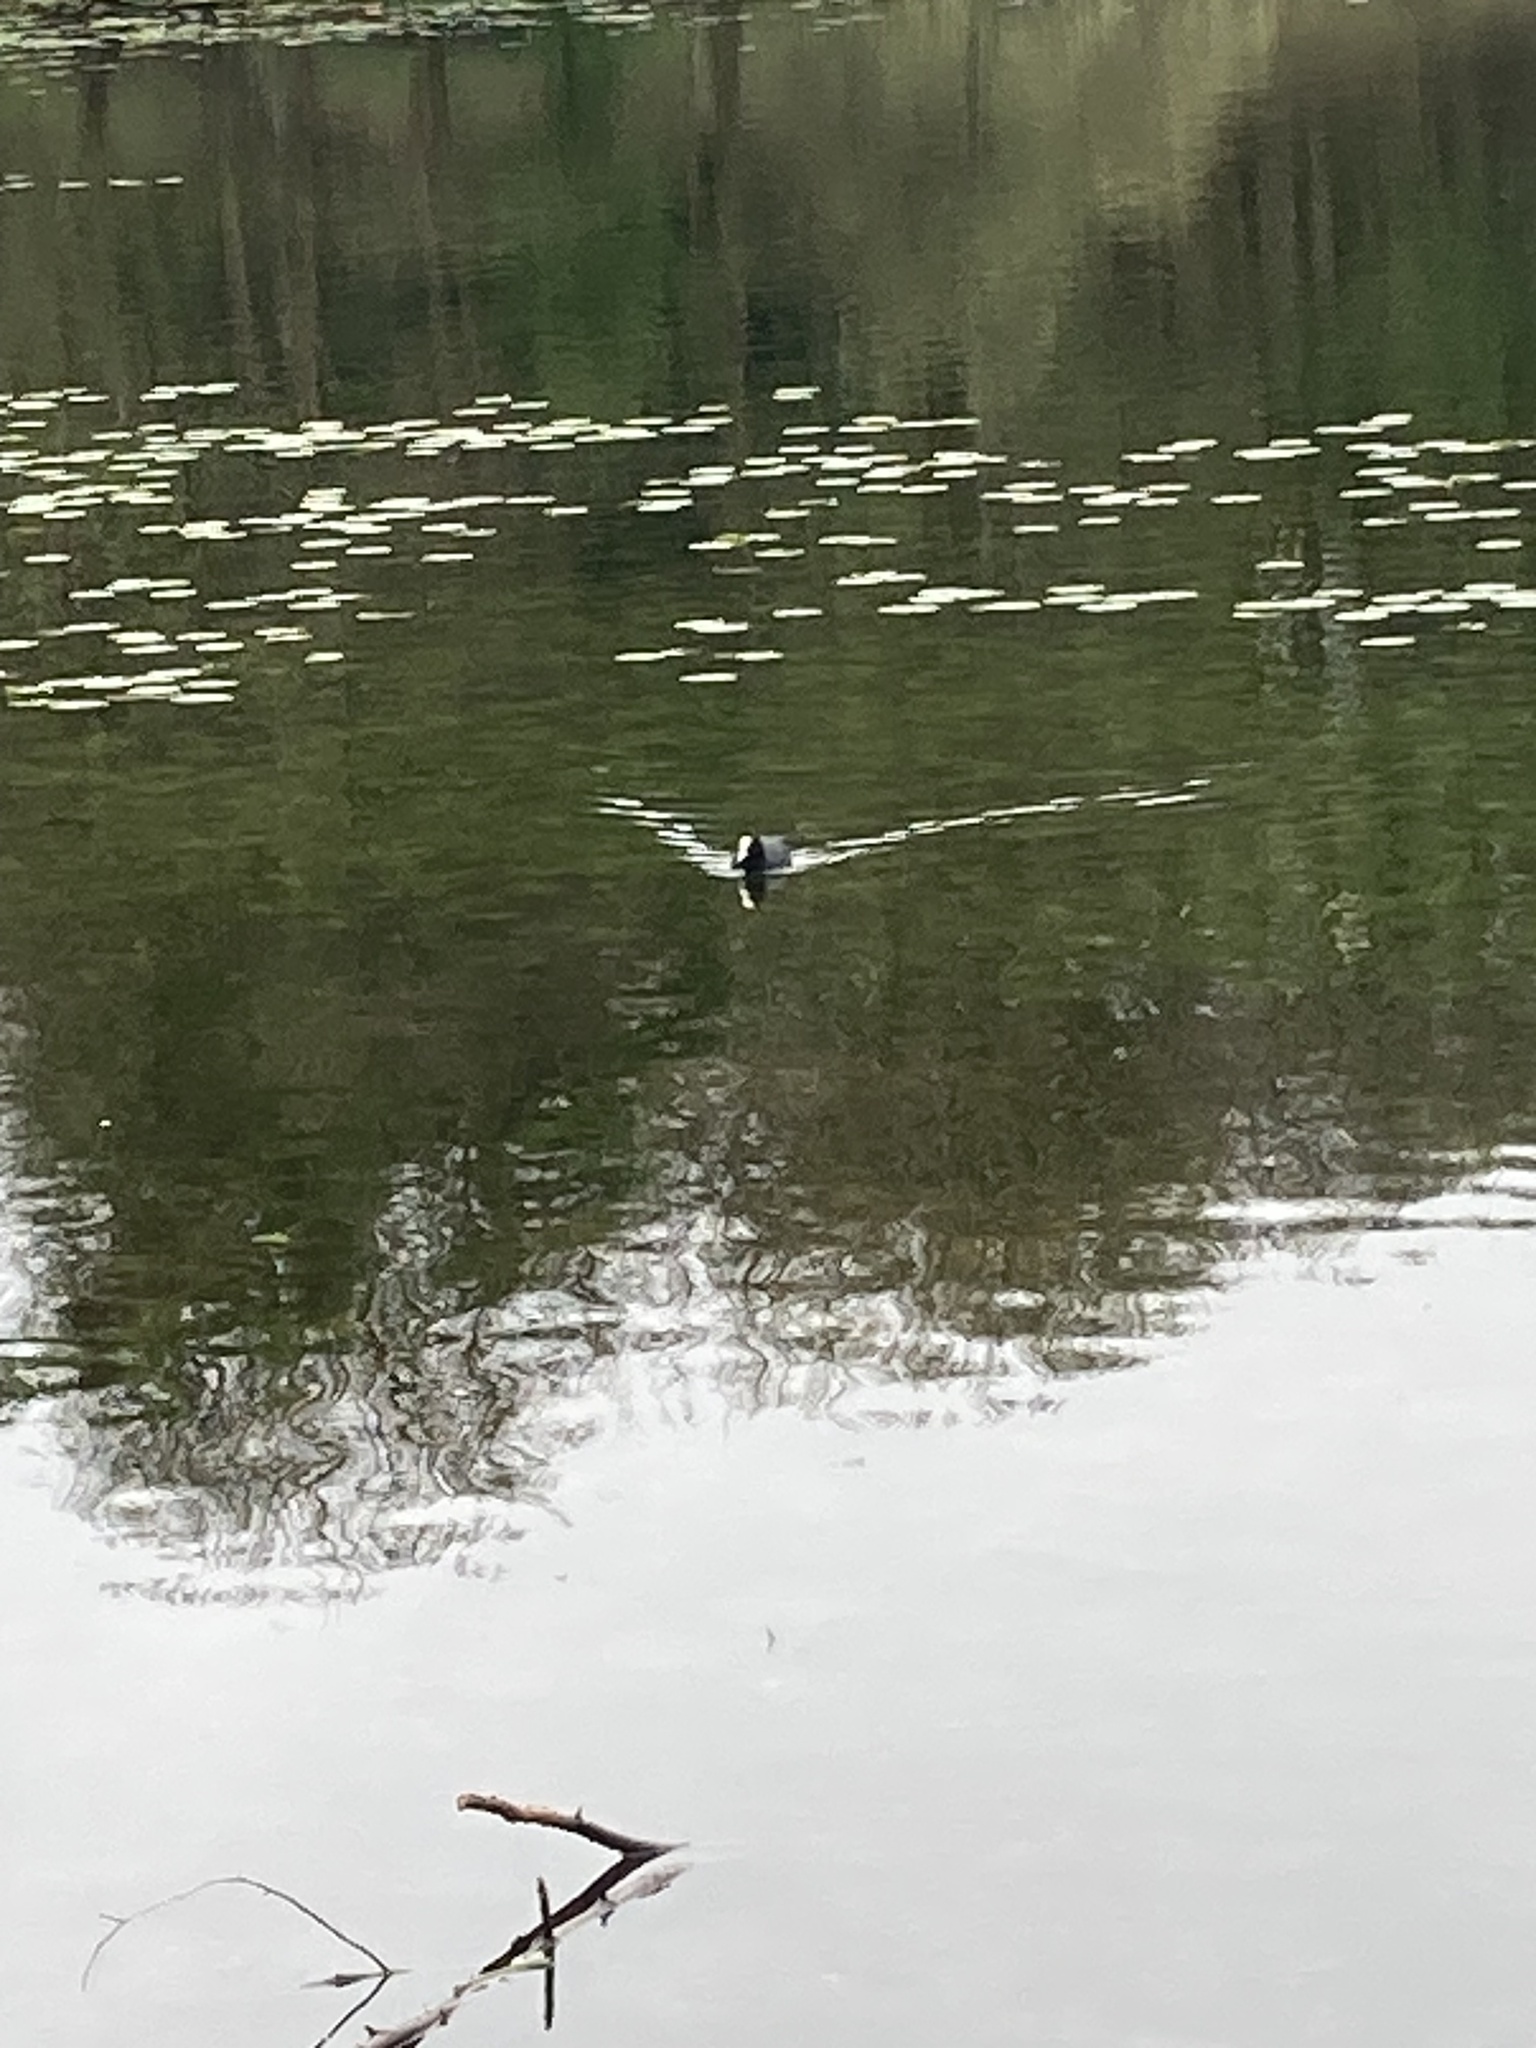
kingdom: Animalia
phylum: Chordata
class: Aves
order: Gruiformes
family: Rallidae
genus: Fulica
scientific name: Fulica atra
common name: Eurasian coot
